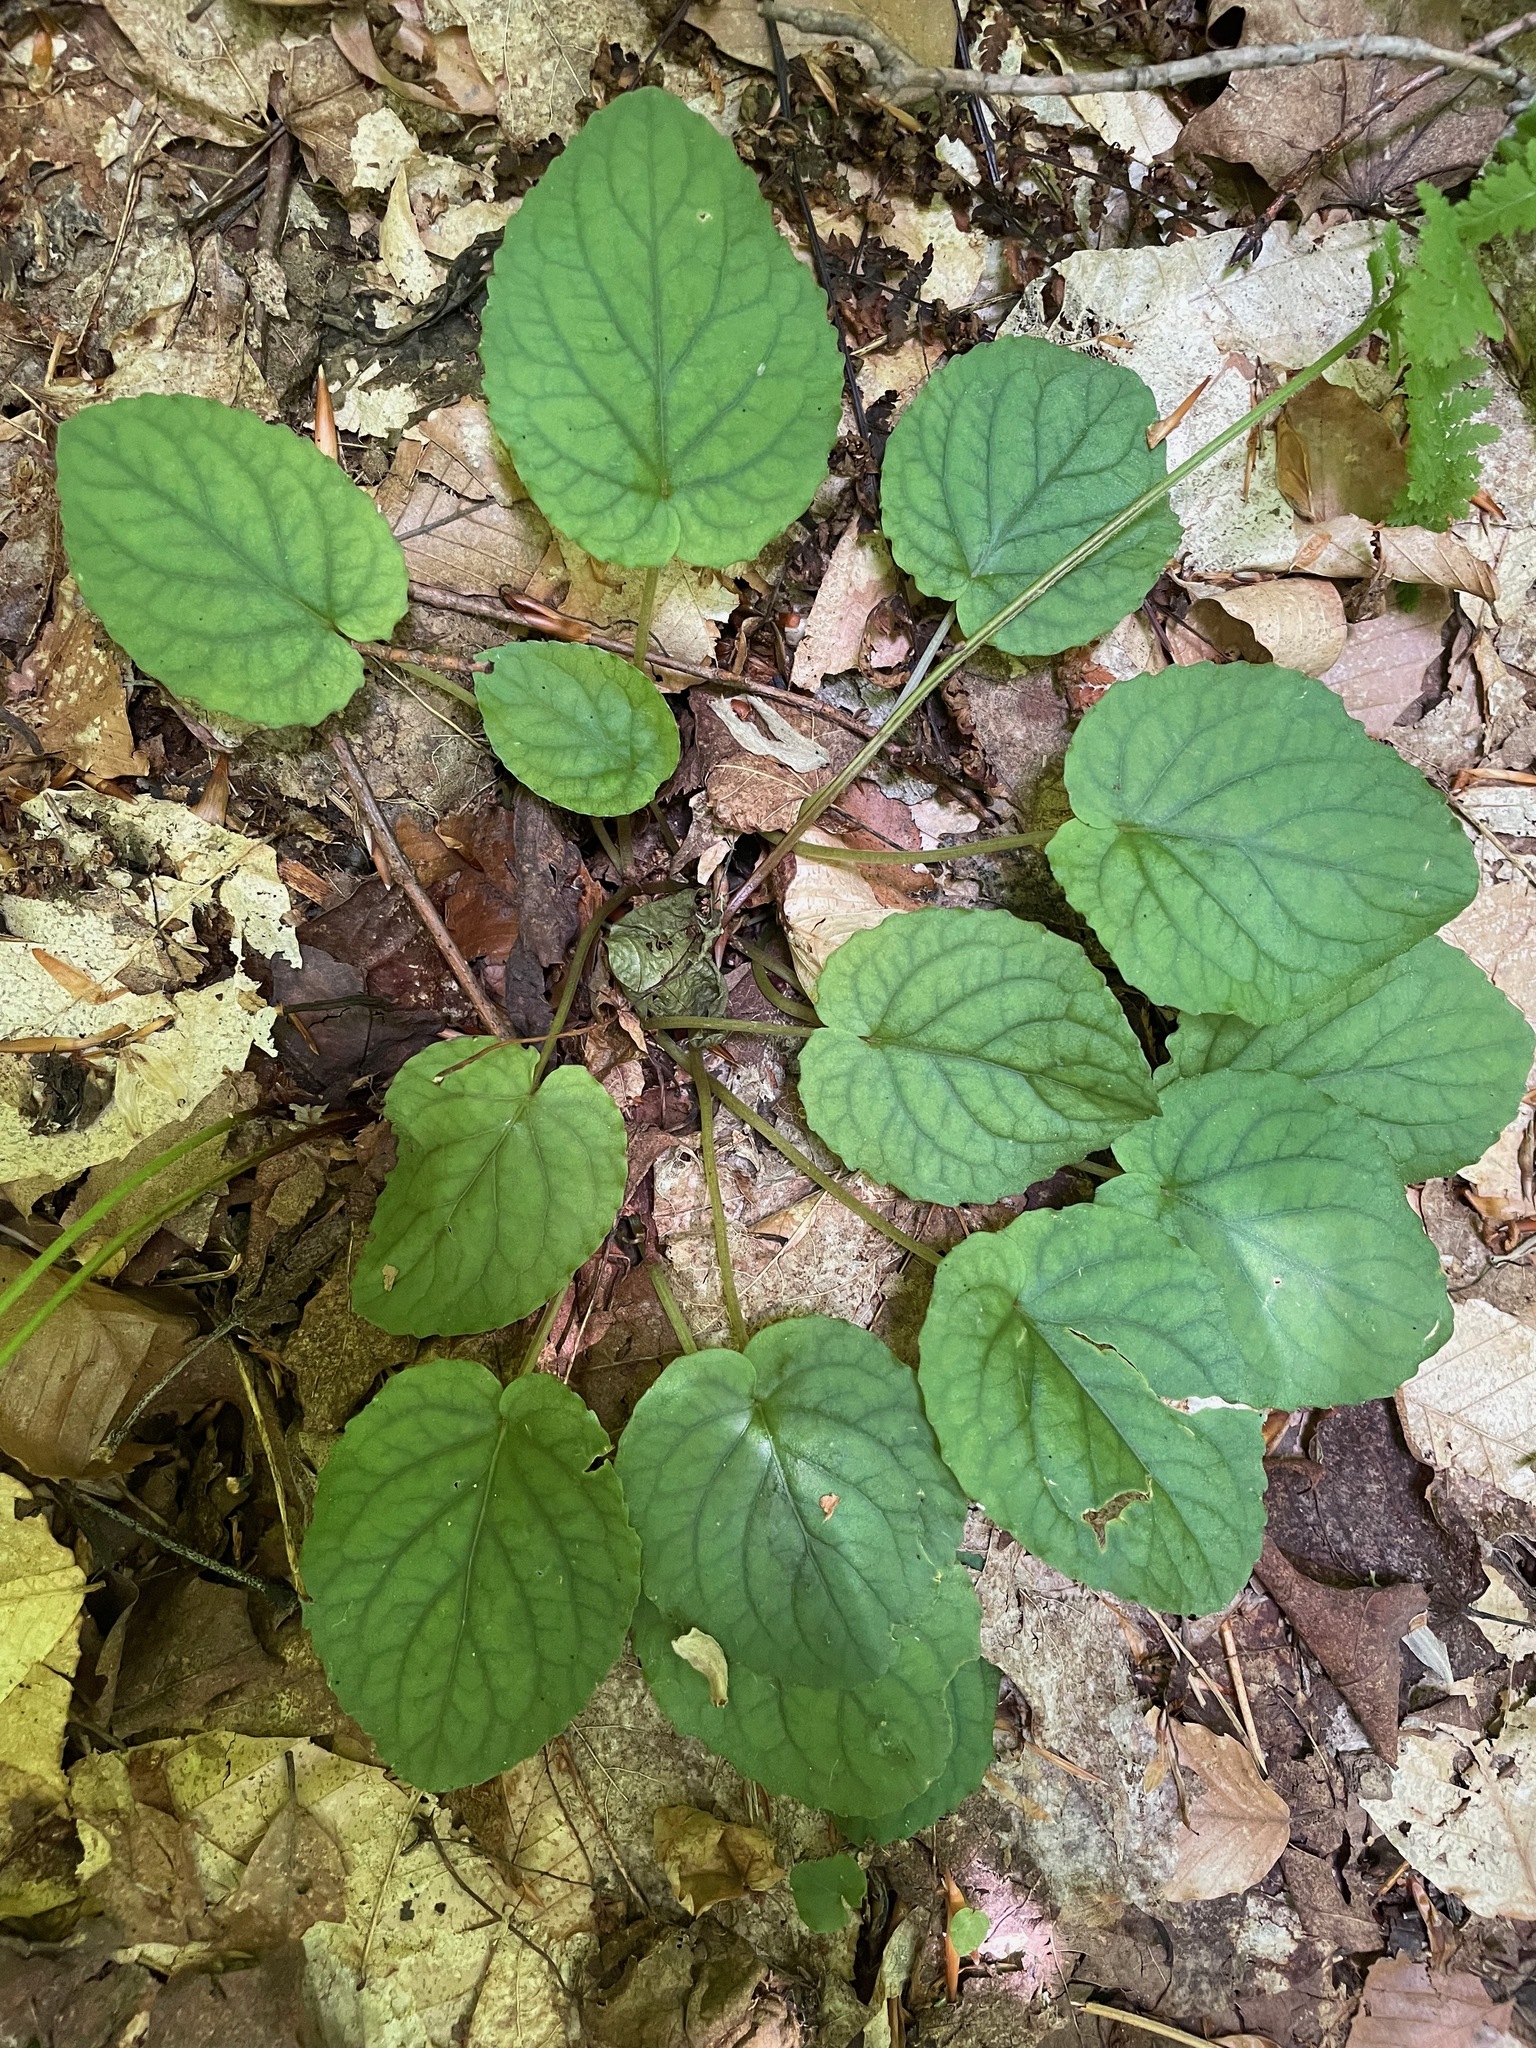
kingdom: Plantae
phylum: Tracheophyta
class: Magnoliopsida
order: Malpighiales
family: Violaceae
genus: Viola
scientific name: Viola rotundifolia
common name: Early yellow violet
